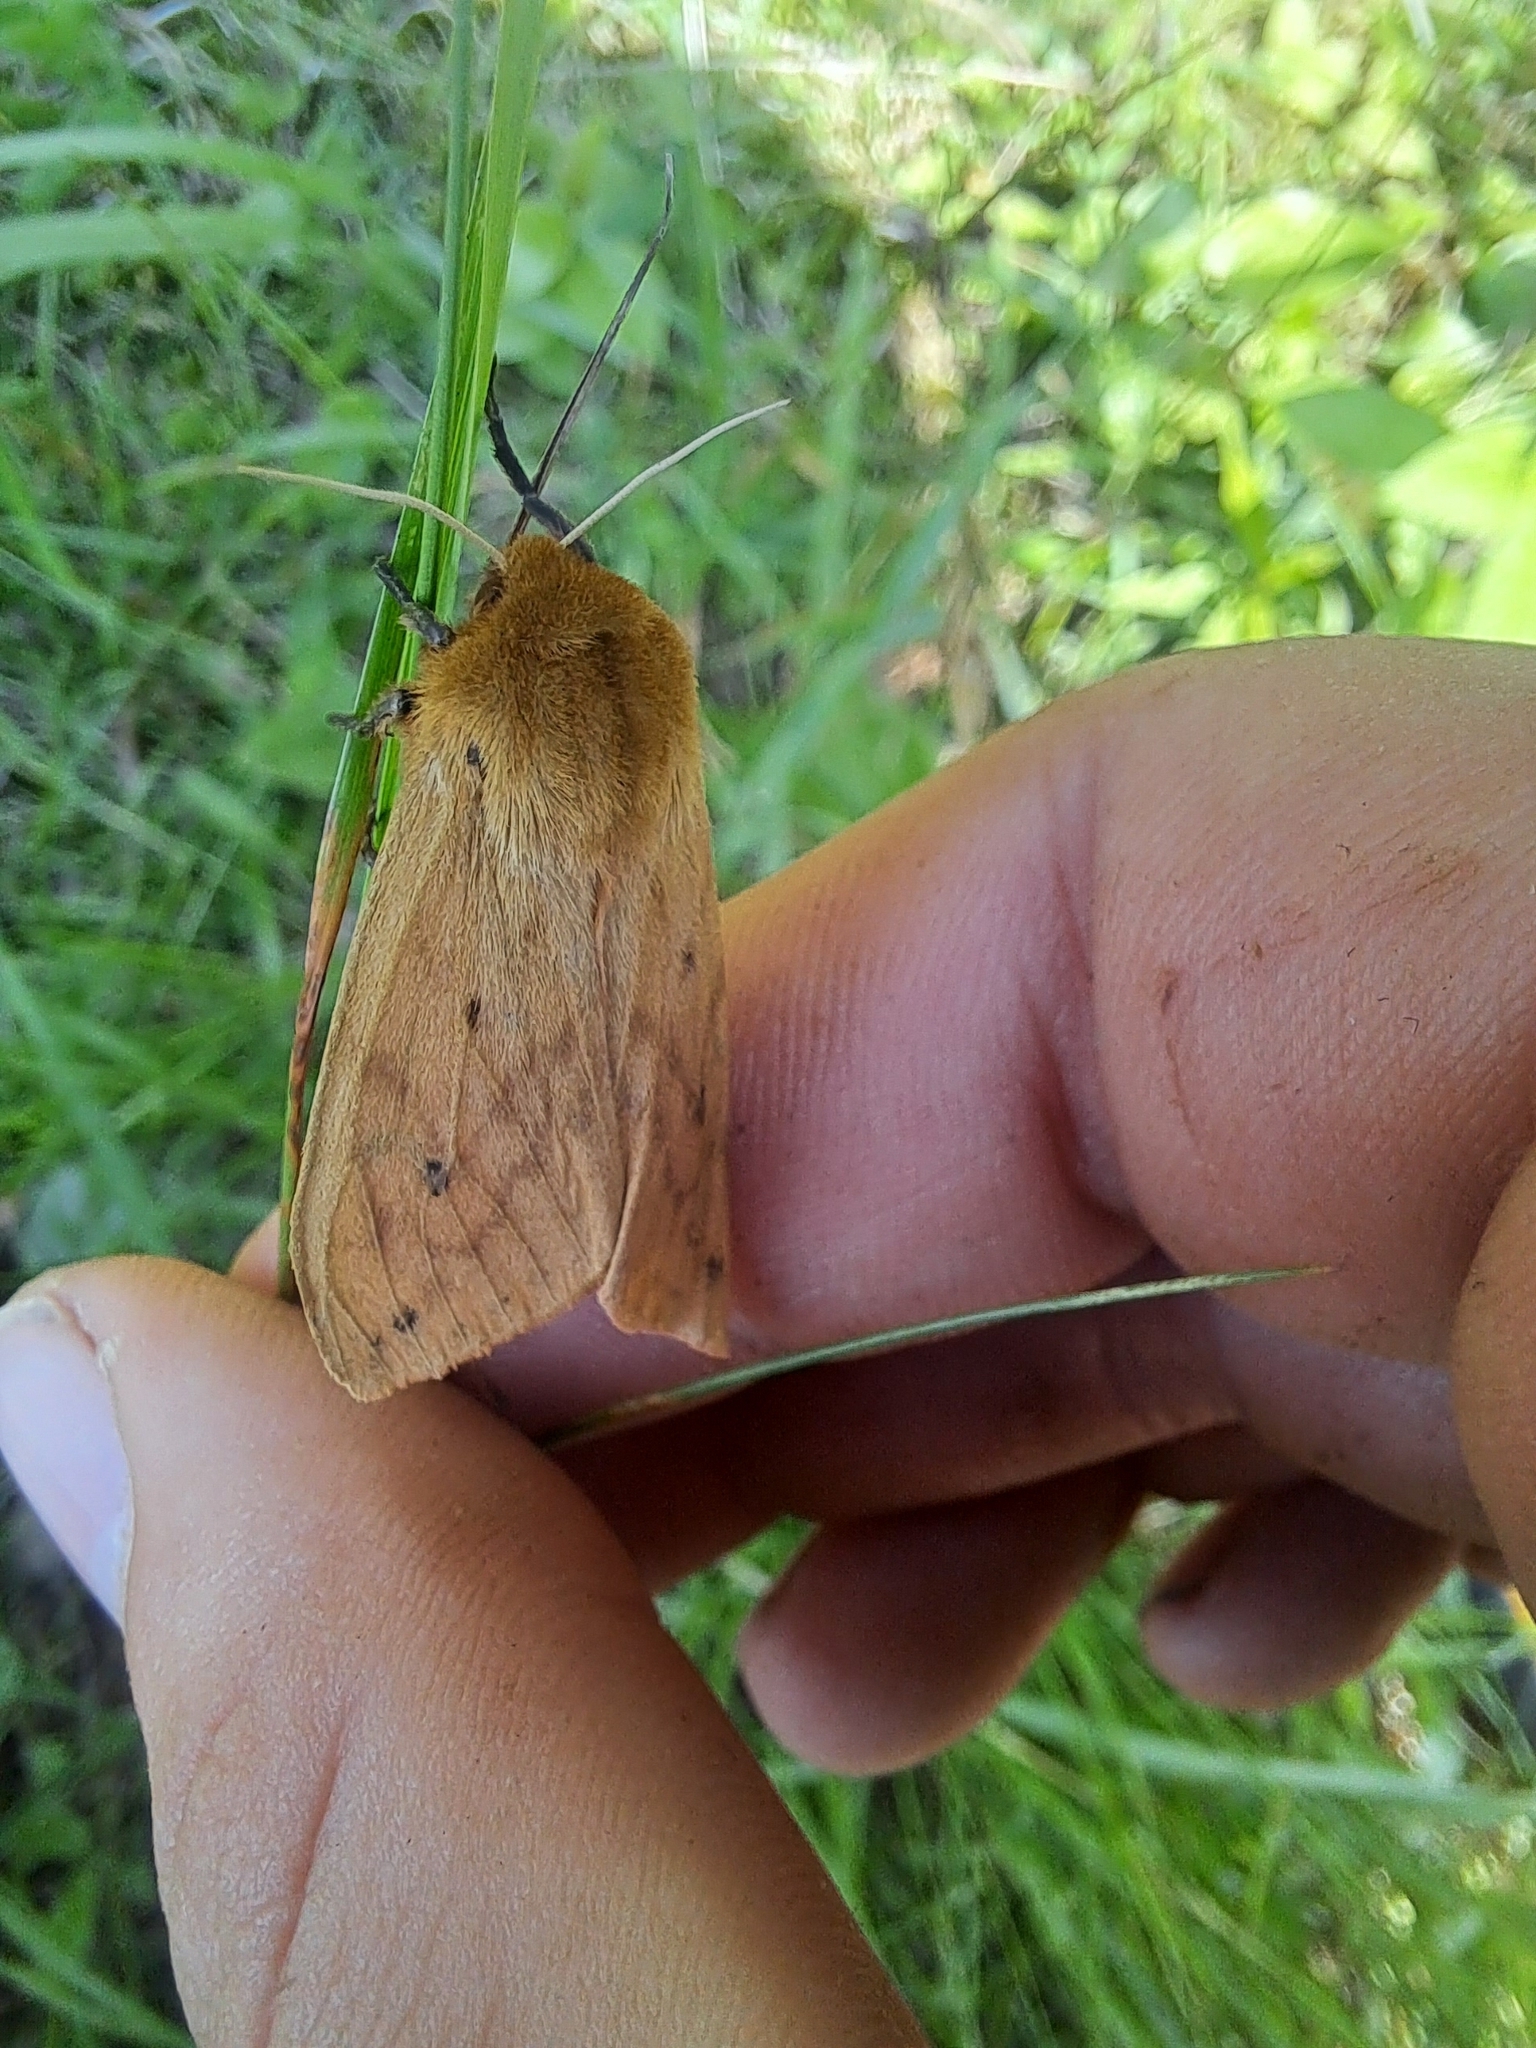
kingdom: Animalia
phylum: Arthropoda
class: Insecta
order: Lepidoptera
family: Erebidae
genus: Pyrrharctia
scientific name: Pyrrharctia isabella
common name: Isabella tiger moth
